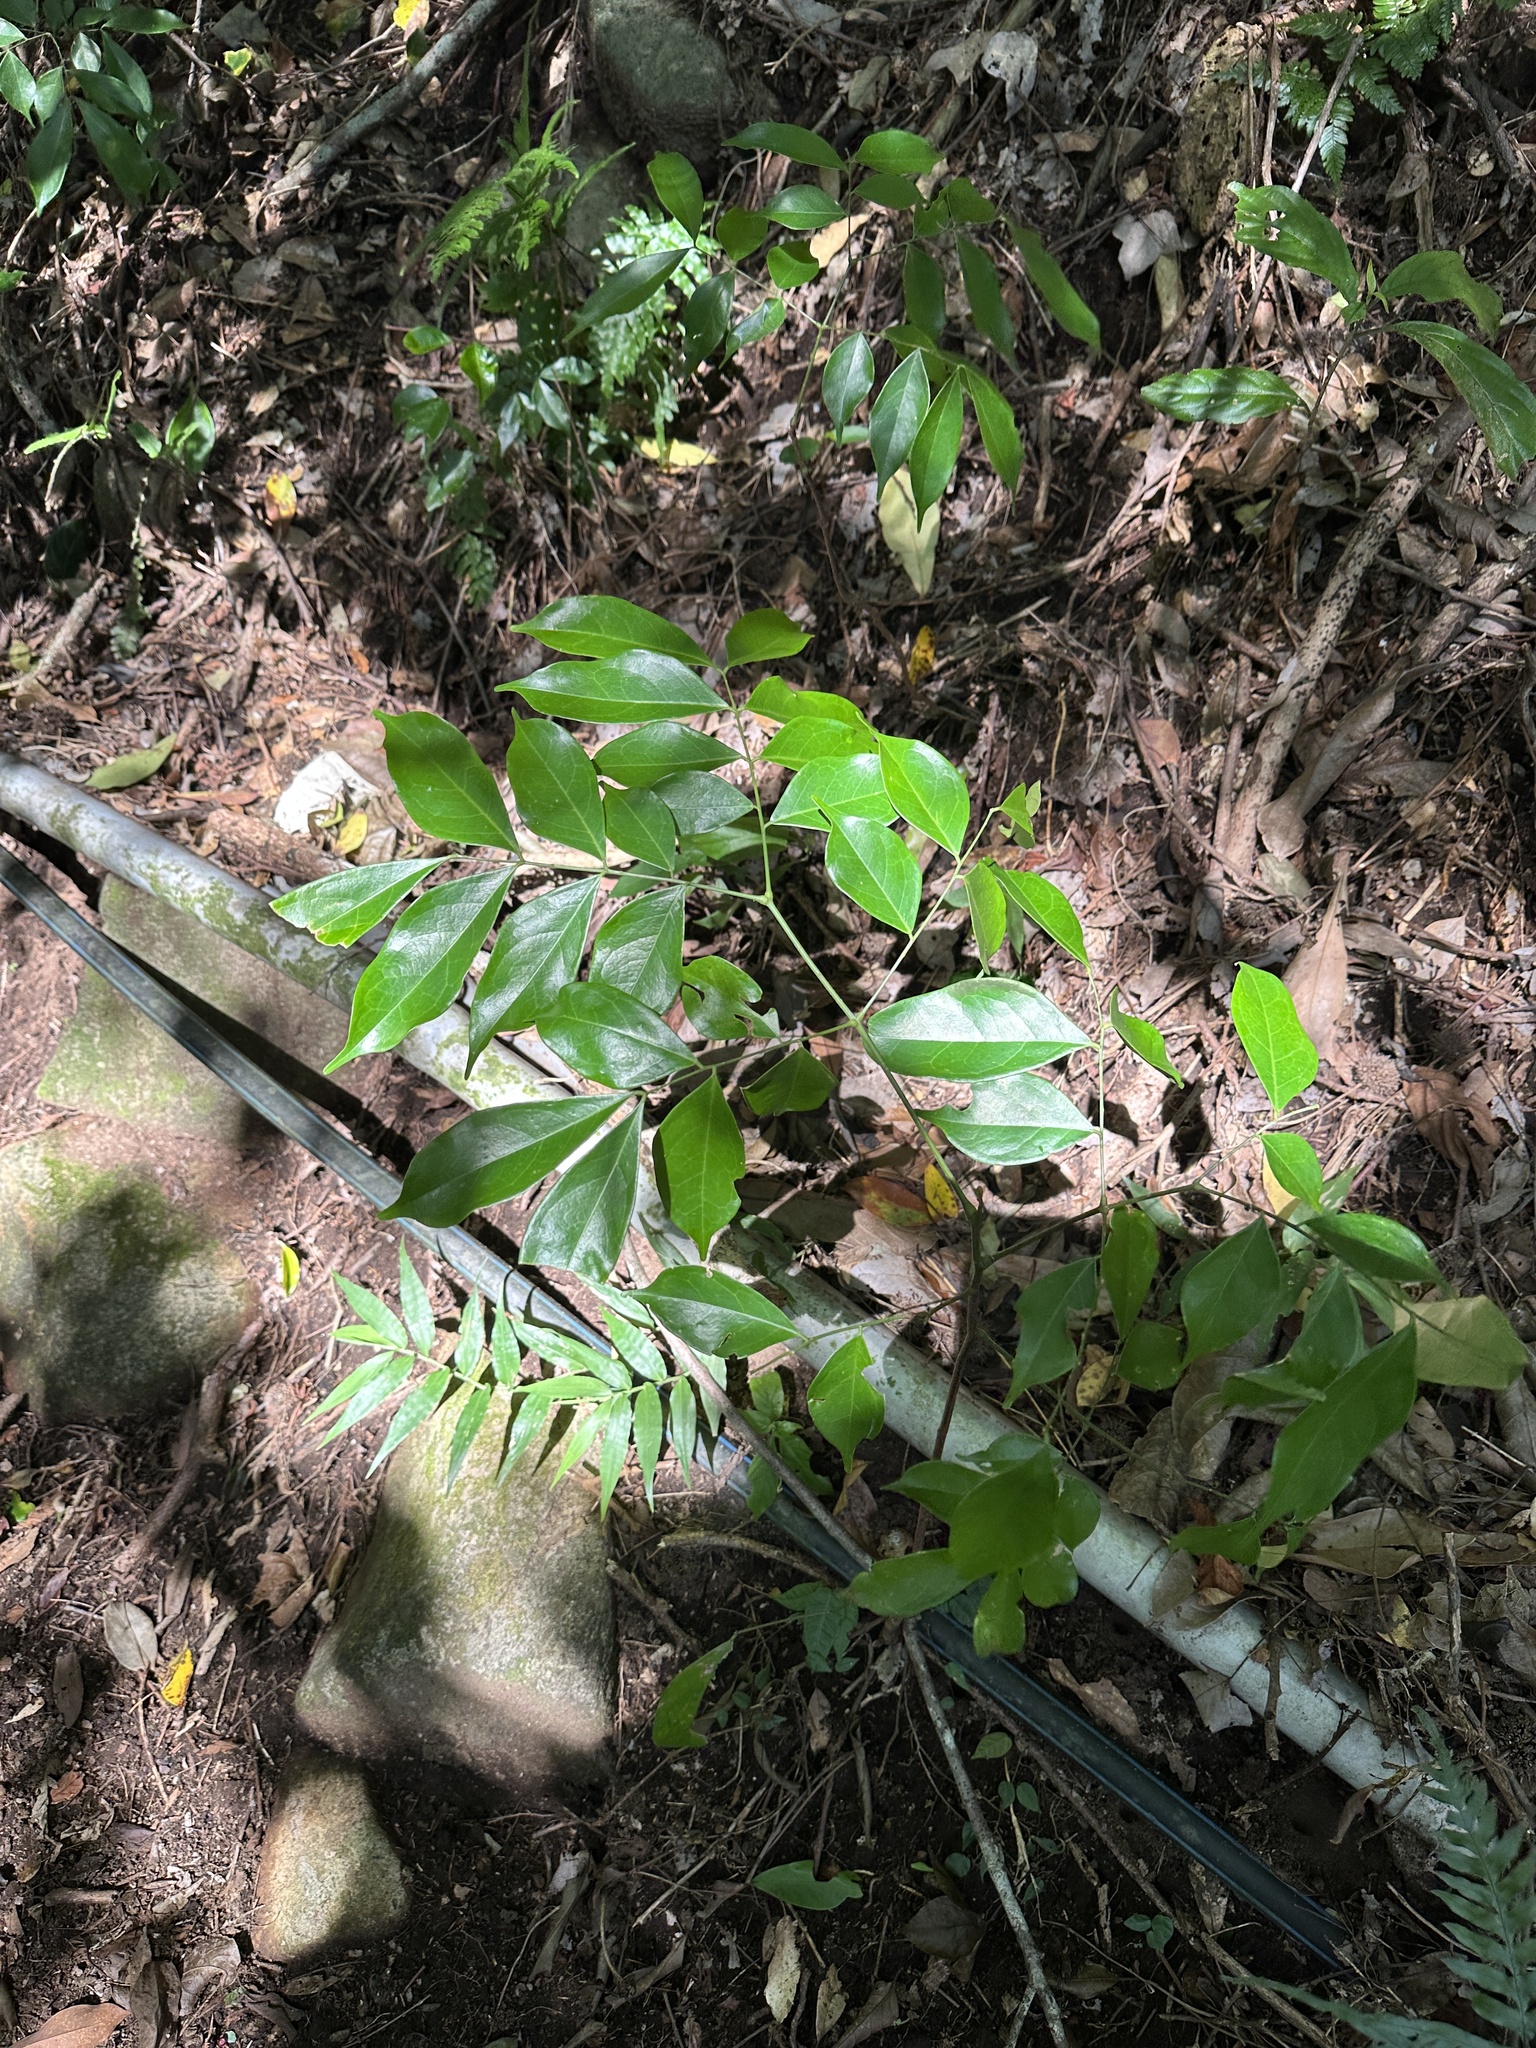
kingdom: Plantae
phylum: Tracheophyta
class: Magnoliopsida
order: Fabales
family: Fabaceae
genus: Archidendron
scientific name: Archidendron lucidum
